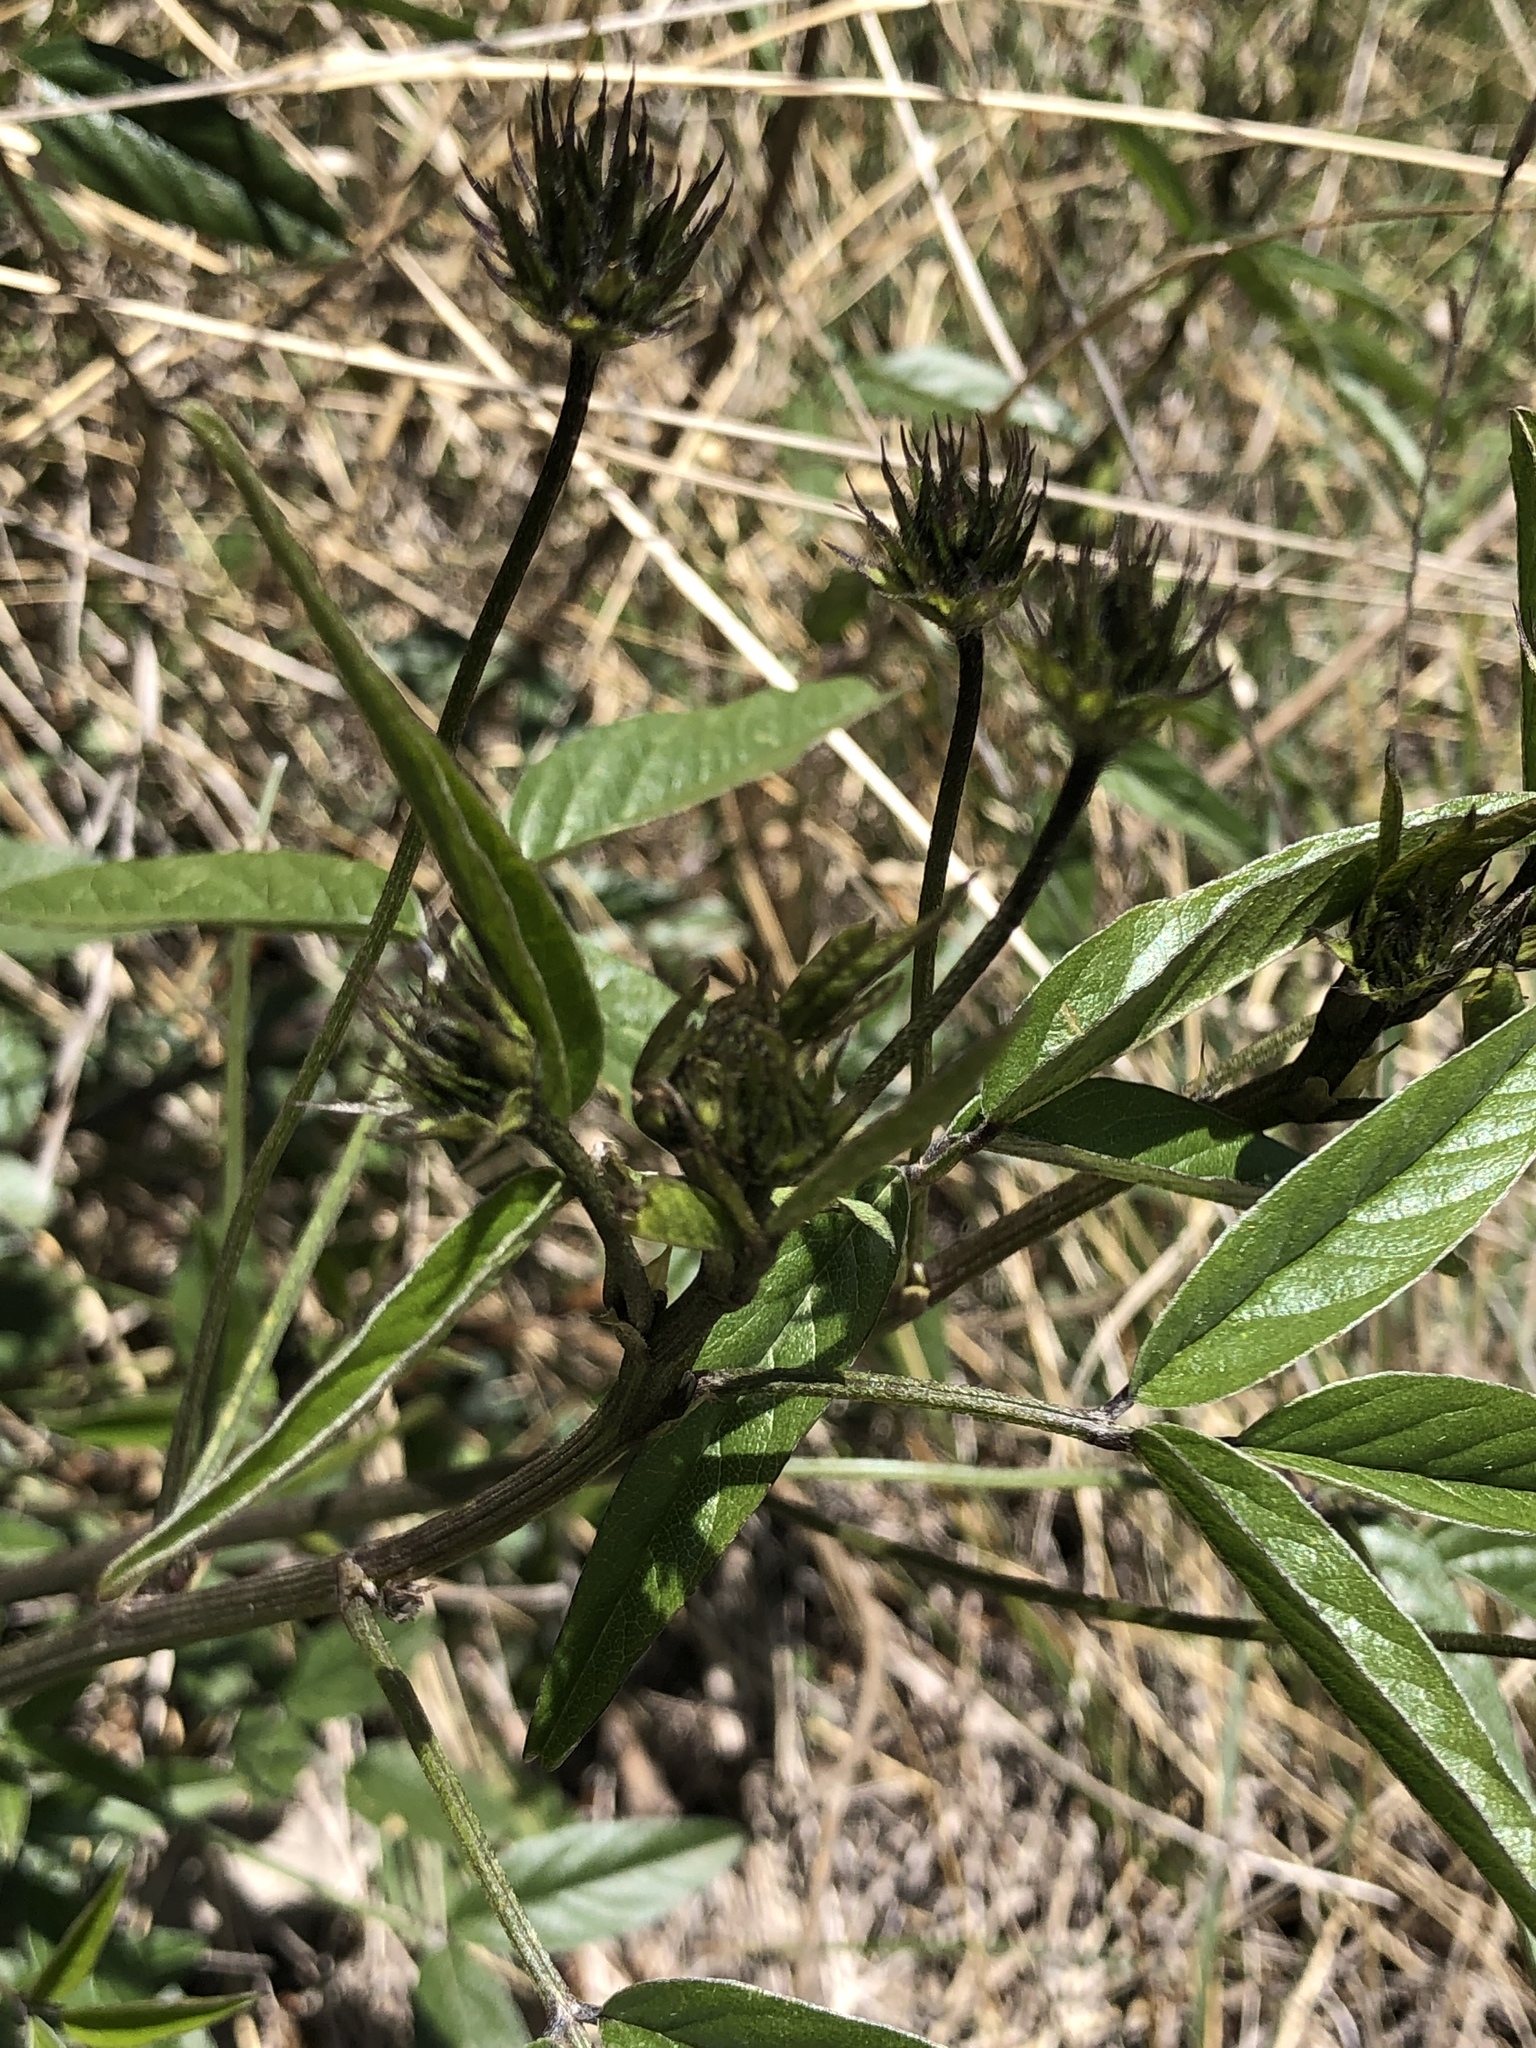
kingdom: Plantae
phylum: Tracheophyta
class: Magnoliopsida
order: Fabales
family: Fabaceae
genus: Bituminaria
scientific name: Bituminaria bituminosa
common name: Arabian pea
